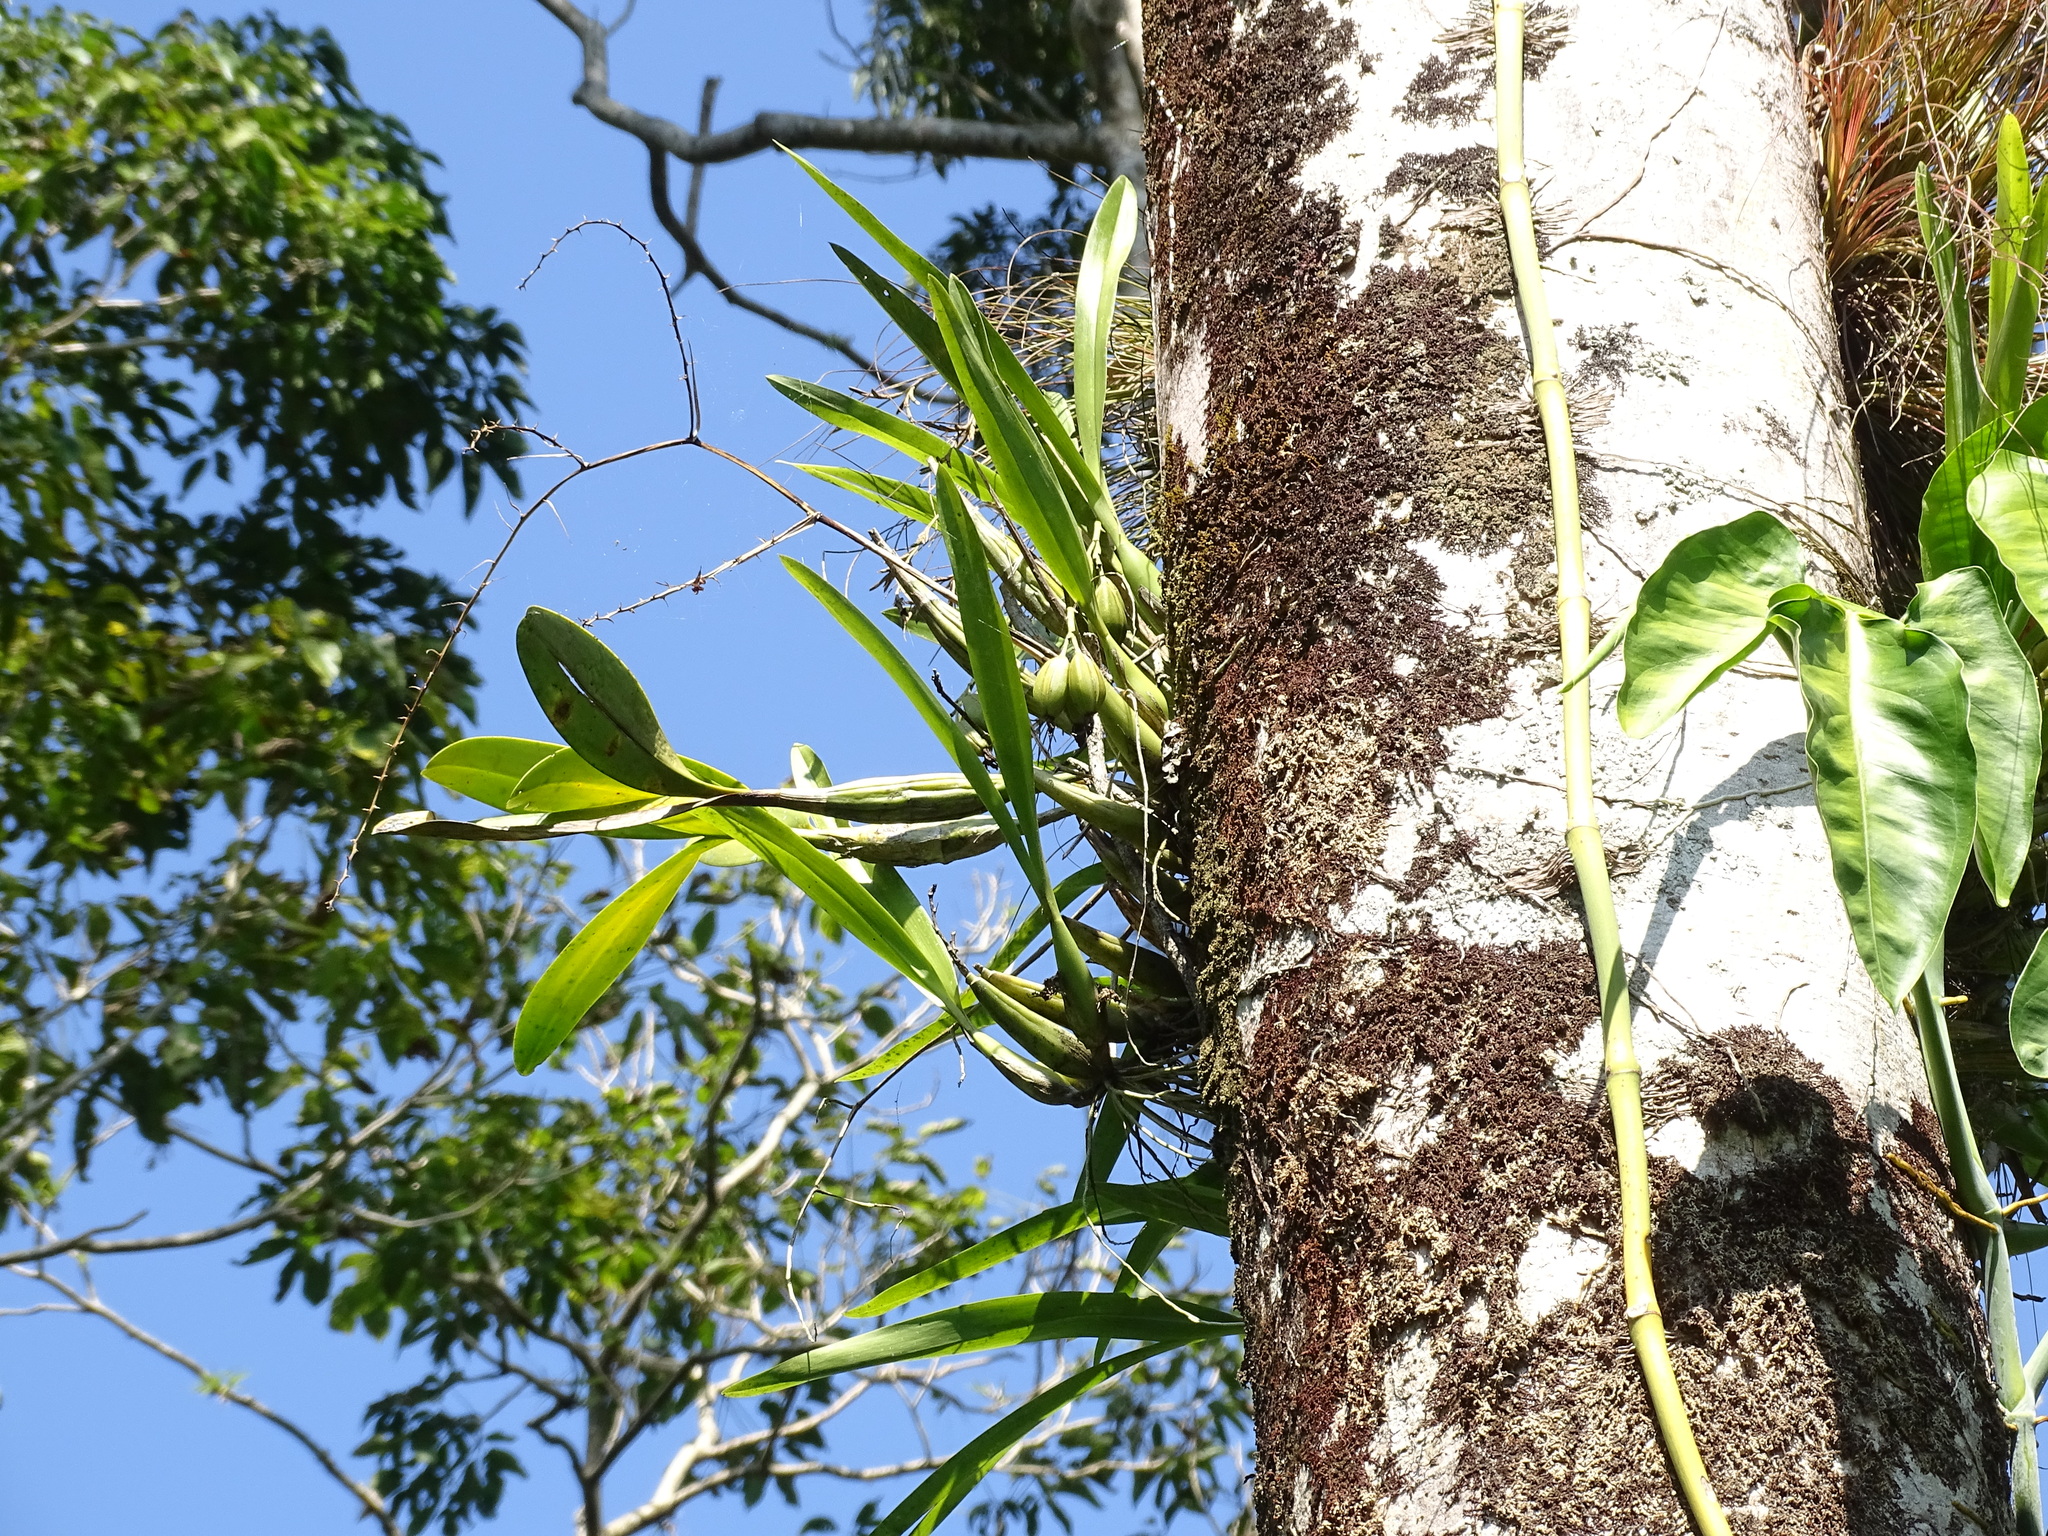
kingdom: Plantae
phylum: Tracheophyta
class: Liliopsida
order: Asparagales
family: Orchidaceae
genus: Epidendrum
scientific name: Epidendrum stamfordianum
